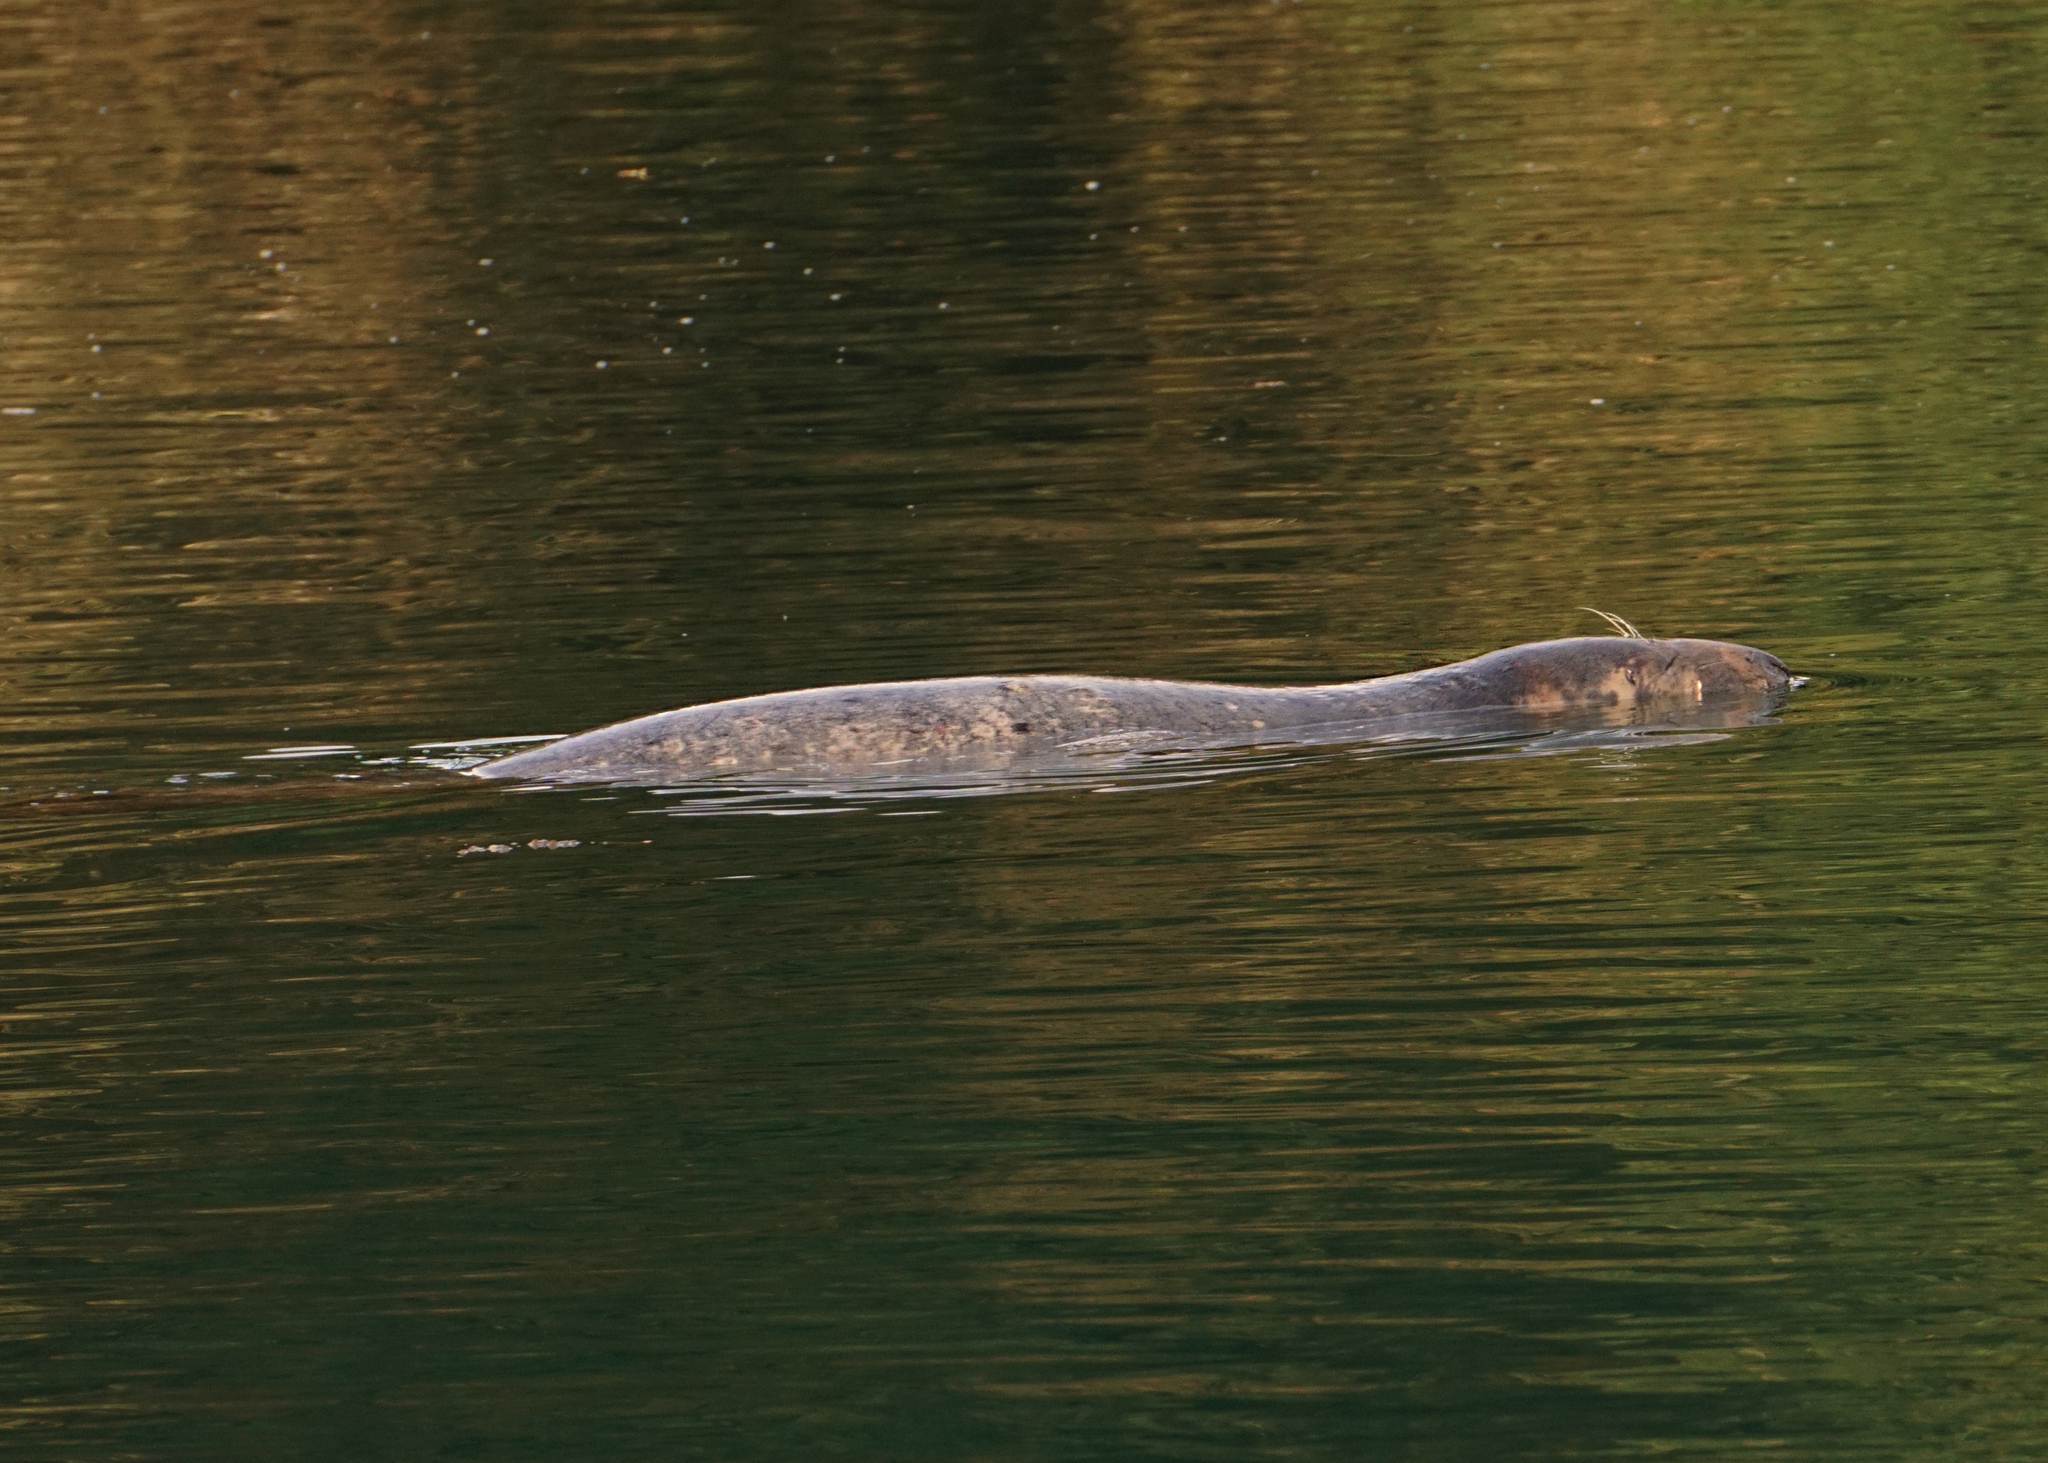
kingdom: Animalia
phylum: Chordata
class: Mammalia
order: Carnivora
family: Phocidae
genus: Halichoerus
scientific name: Halichoerus grypus
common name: Grey seal
